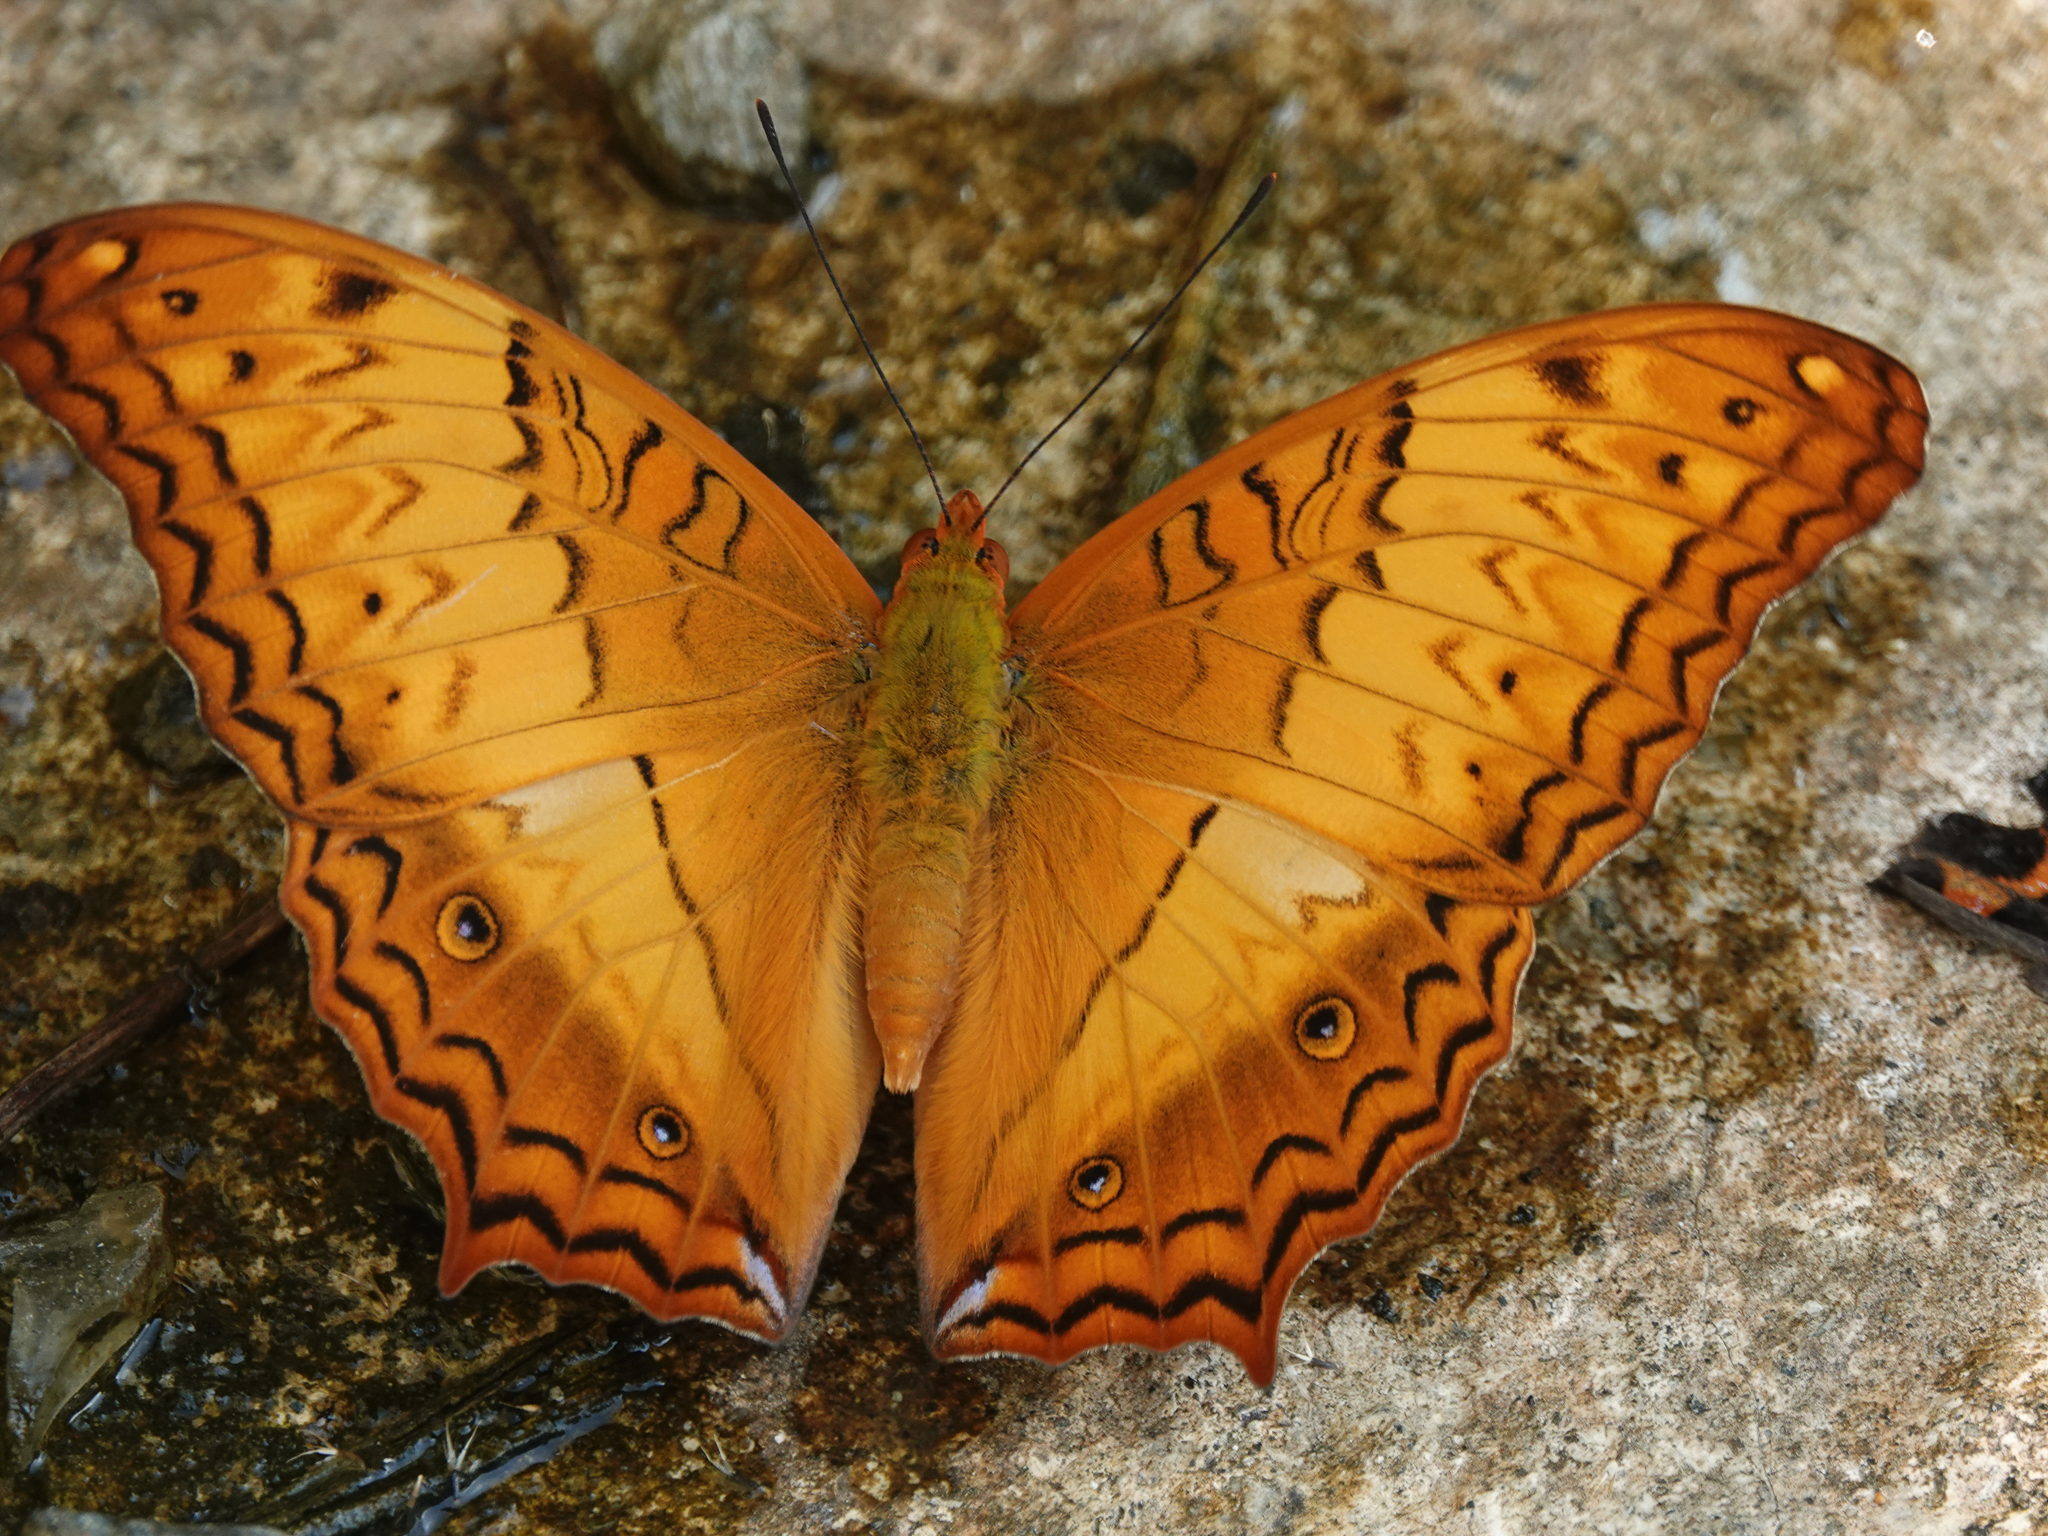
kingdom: Animalia
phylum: Arthropoda
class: Insecta
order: Lepidoptera
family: Nymphalidae
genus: Vindula
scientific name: Vindula erota
